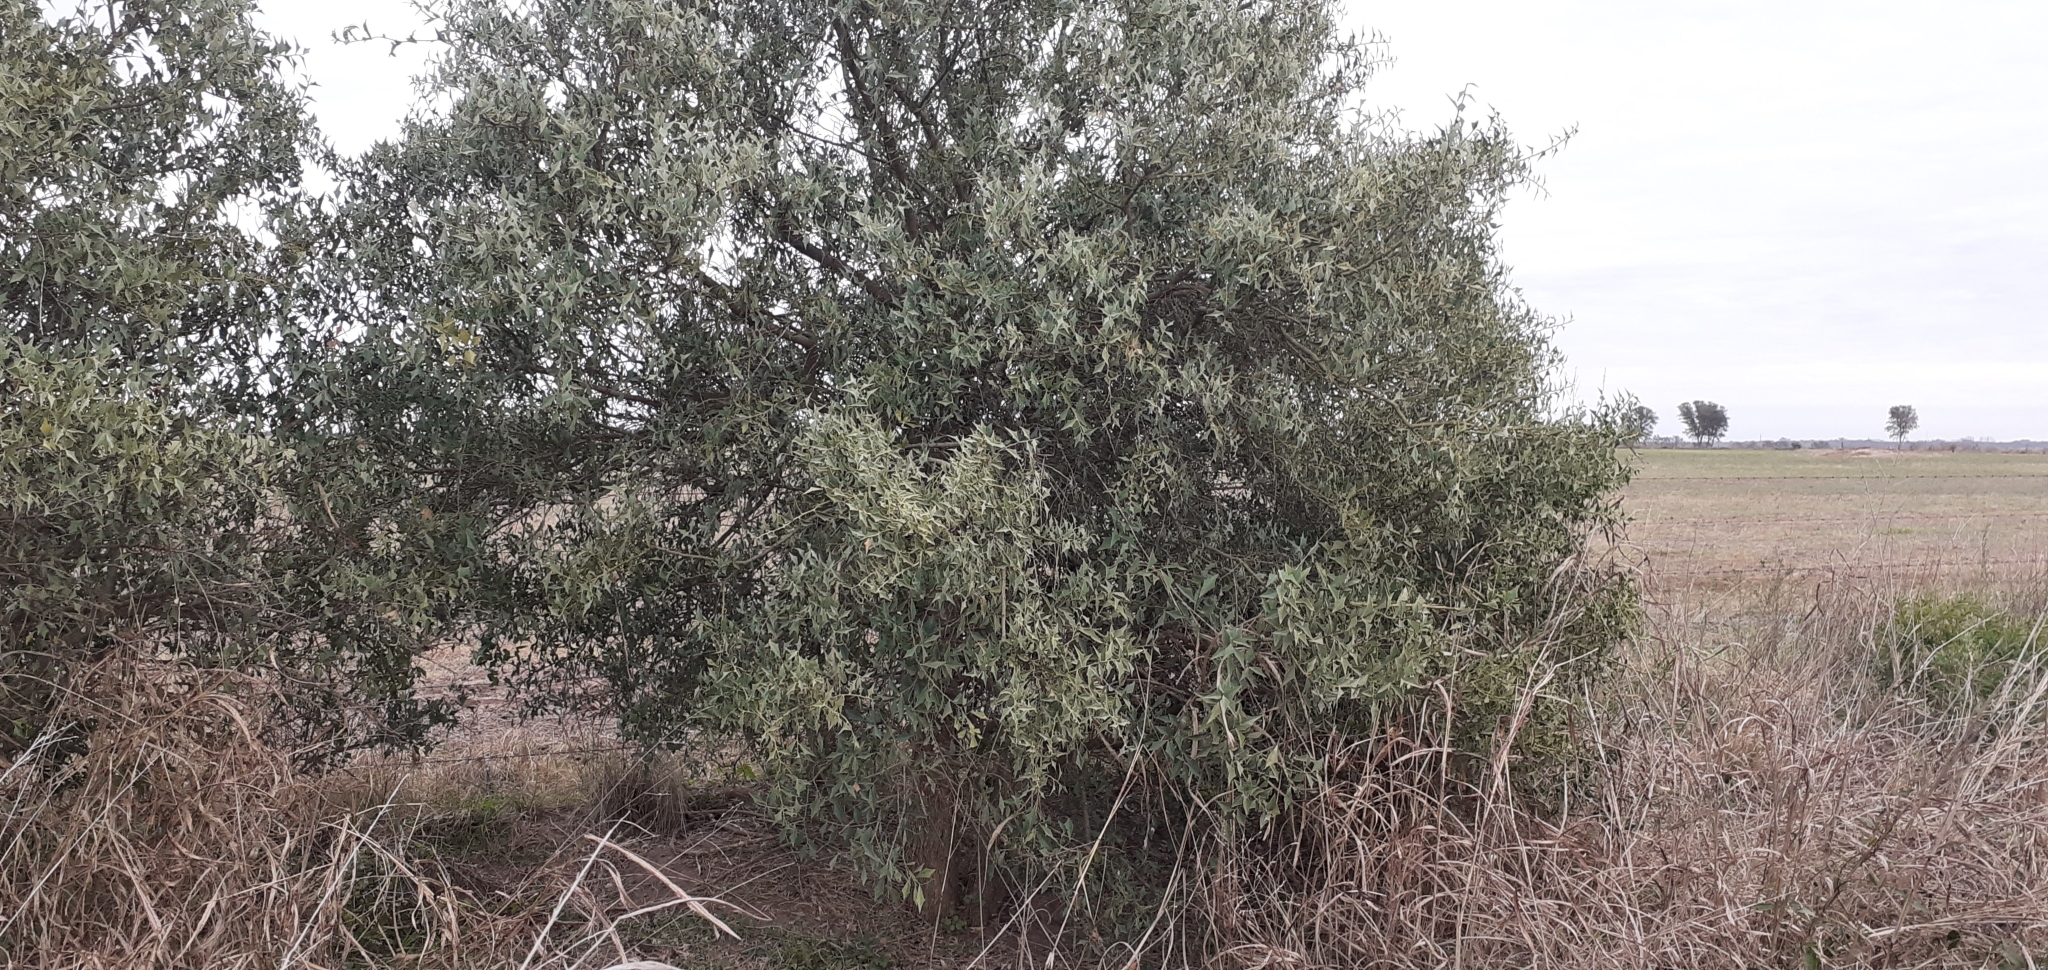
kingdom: Plantae
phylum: Tracheophyta
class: Magnoliopsida
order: Santalales
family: Cervantesiaceae
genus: Jodina
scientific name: Jodina rhombifolia
